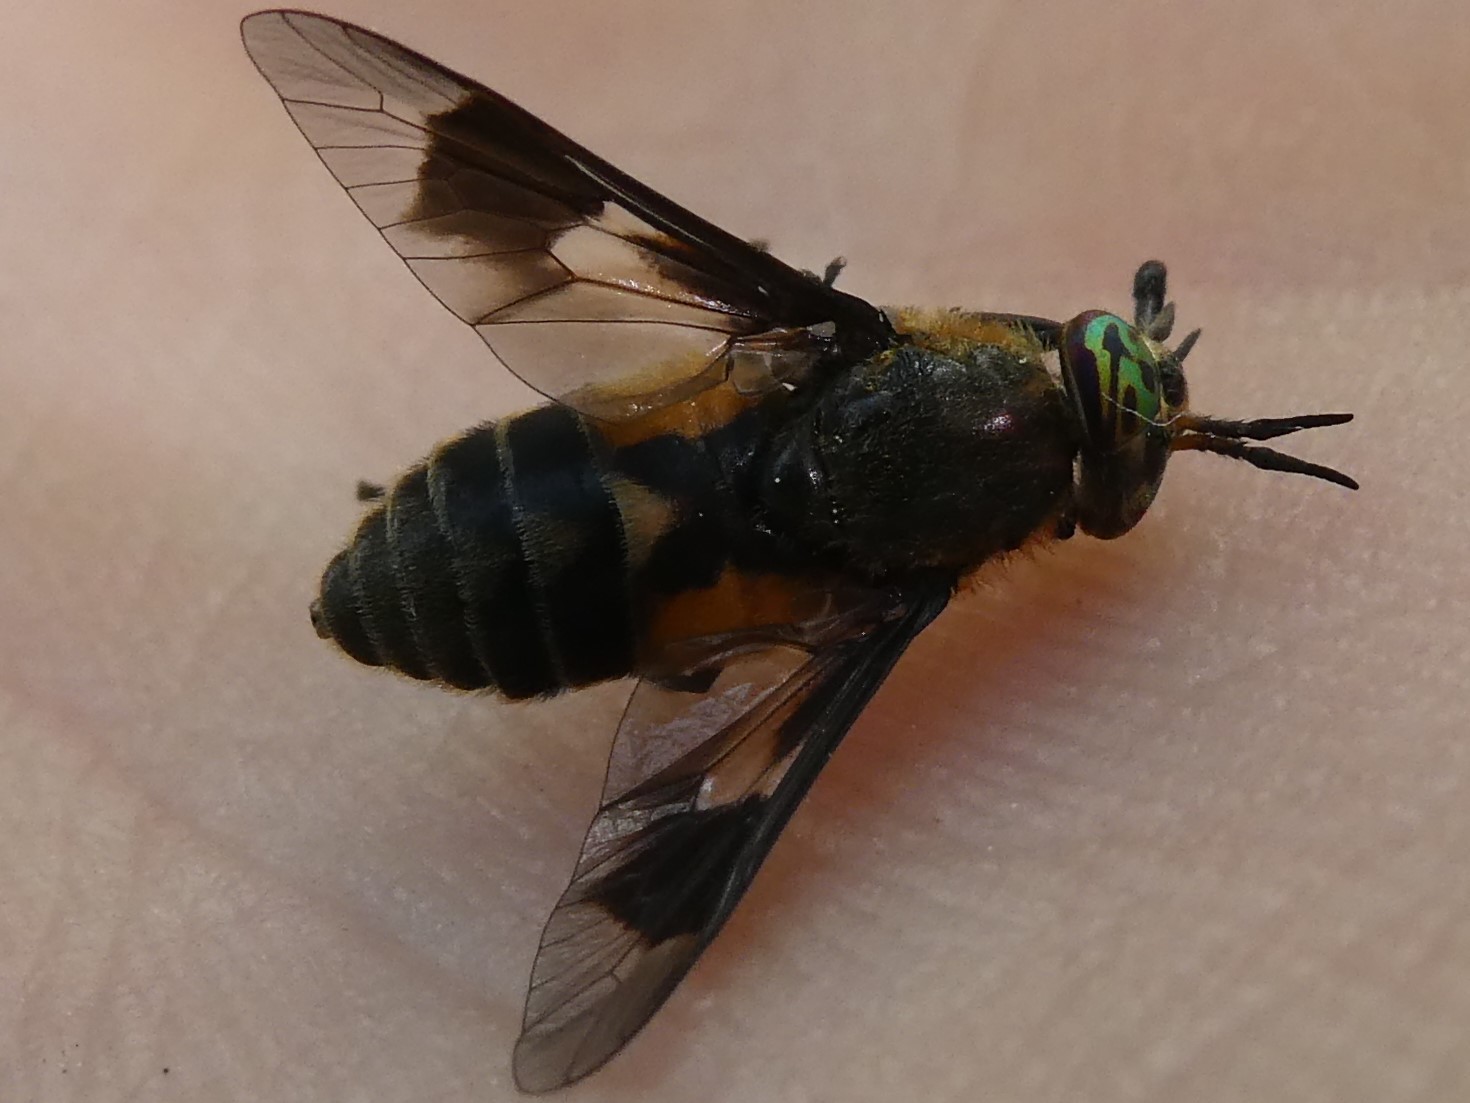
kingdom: Animalia
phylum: Arthropoda
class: Insecta
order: Diptera
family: Tabanidae
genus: Chrysops
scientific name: Chrysops excitans
